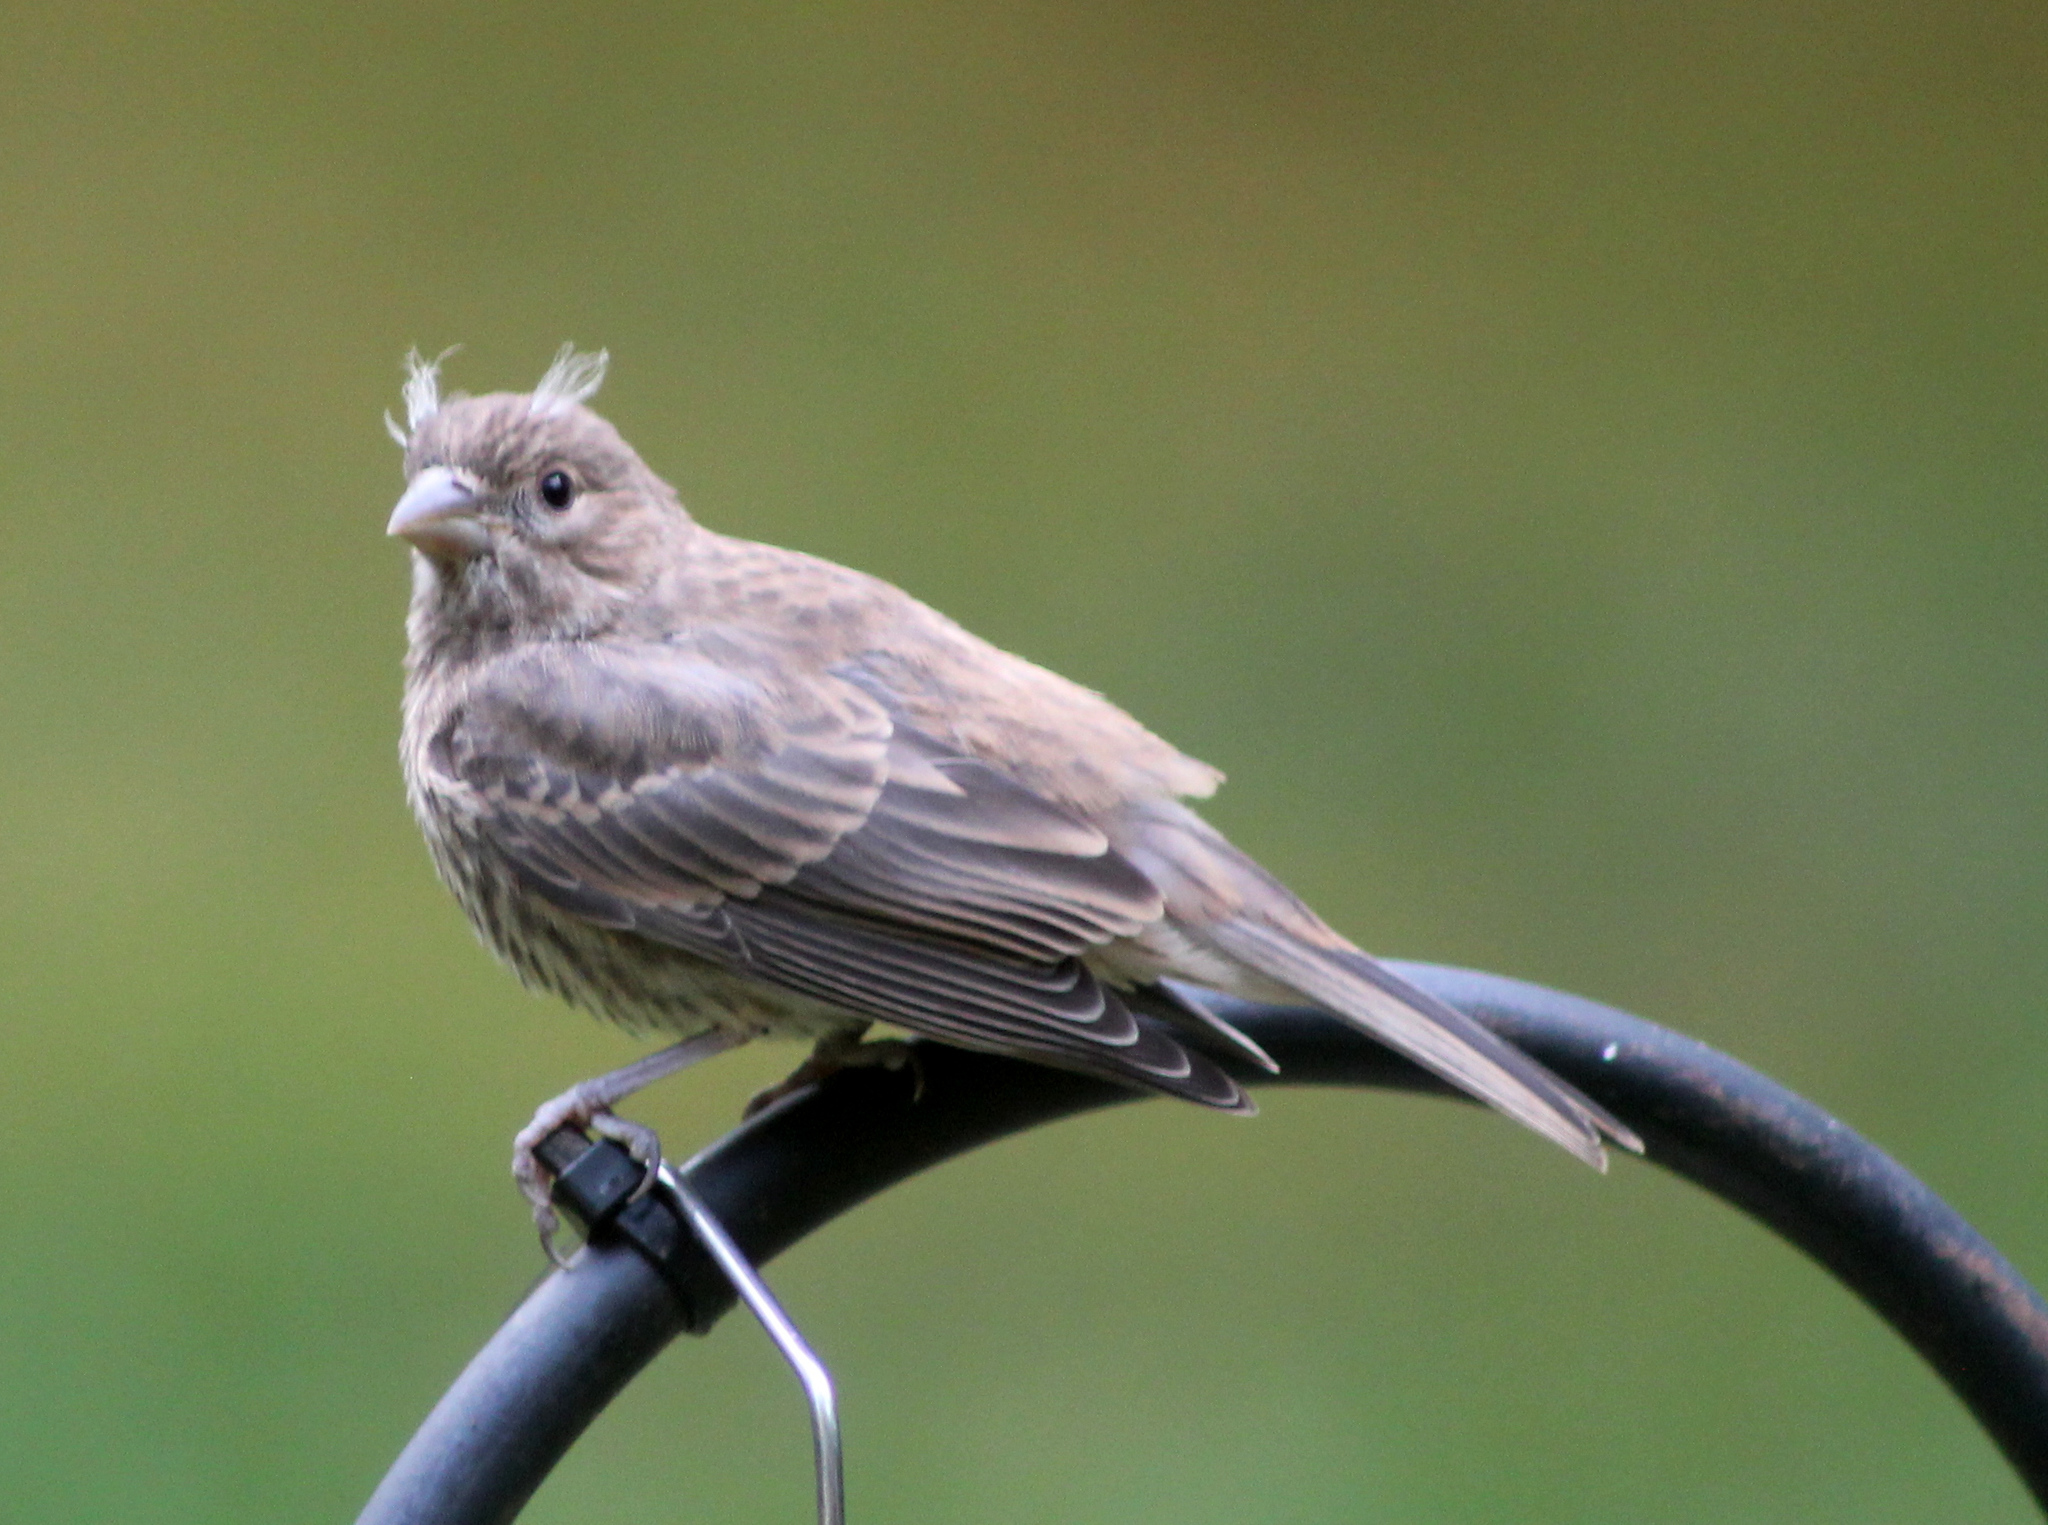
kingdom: Animalia
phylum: Chordata
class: Aves
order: Passeriformes
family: Fringillidae
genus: Haemorhous
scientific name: Haemorhous mexicanus
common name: House finch
